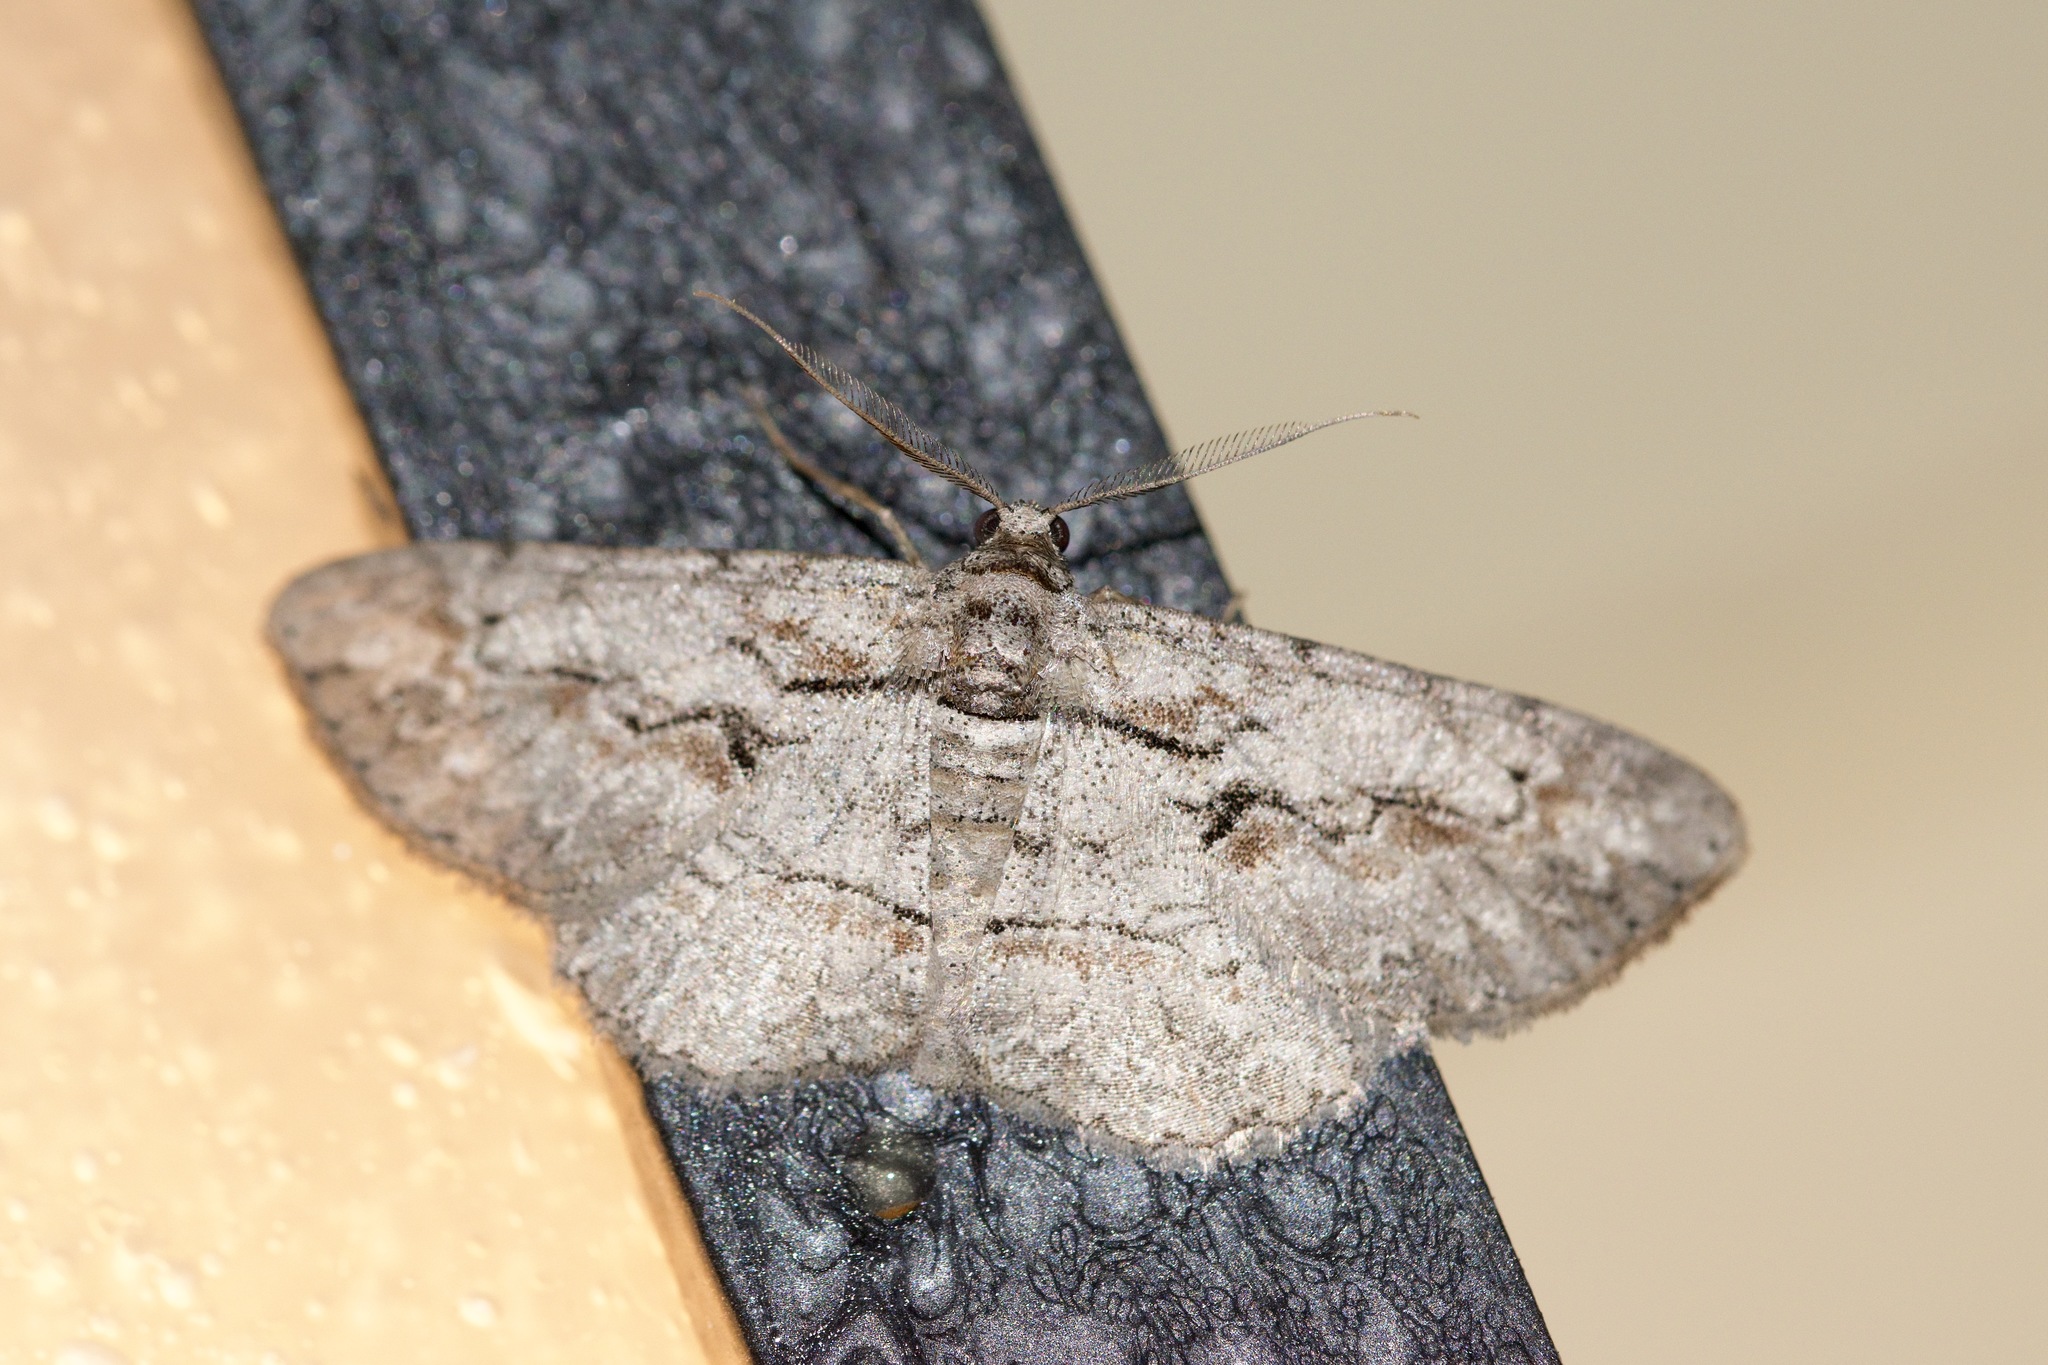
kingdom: Animalia
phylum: Arthropoda
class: Insecta
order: Lepidoptera
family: Geometridae
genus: Iridopsis
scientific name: Iridopsis humaria
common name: Small purplish gray
